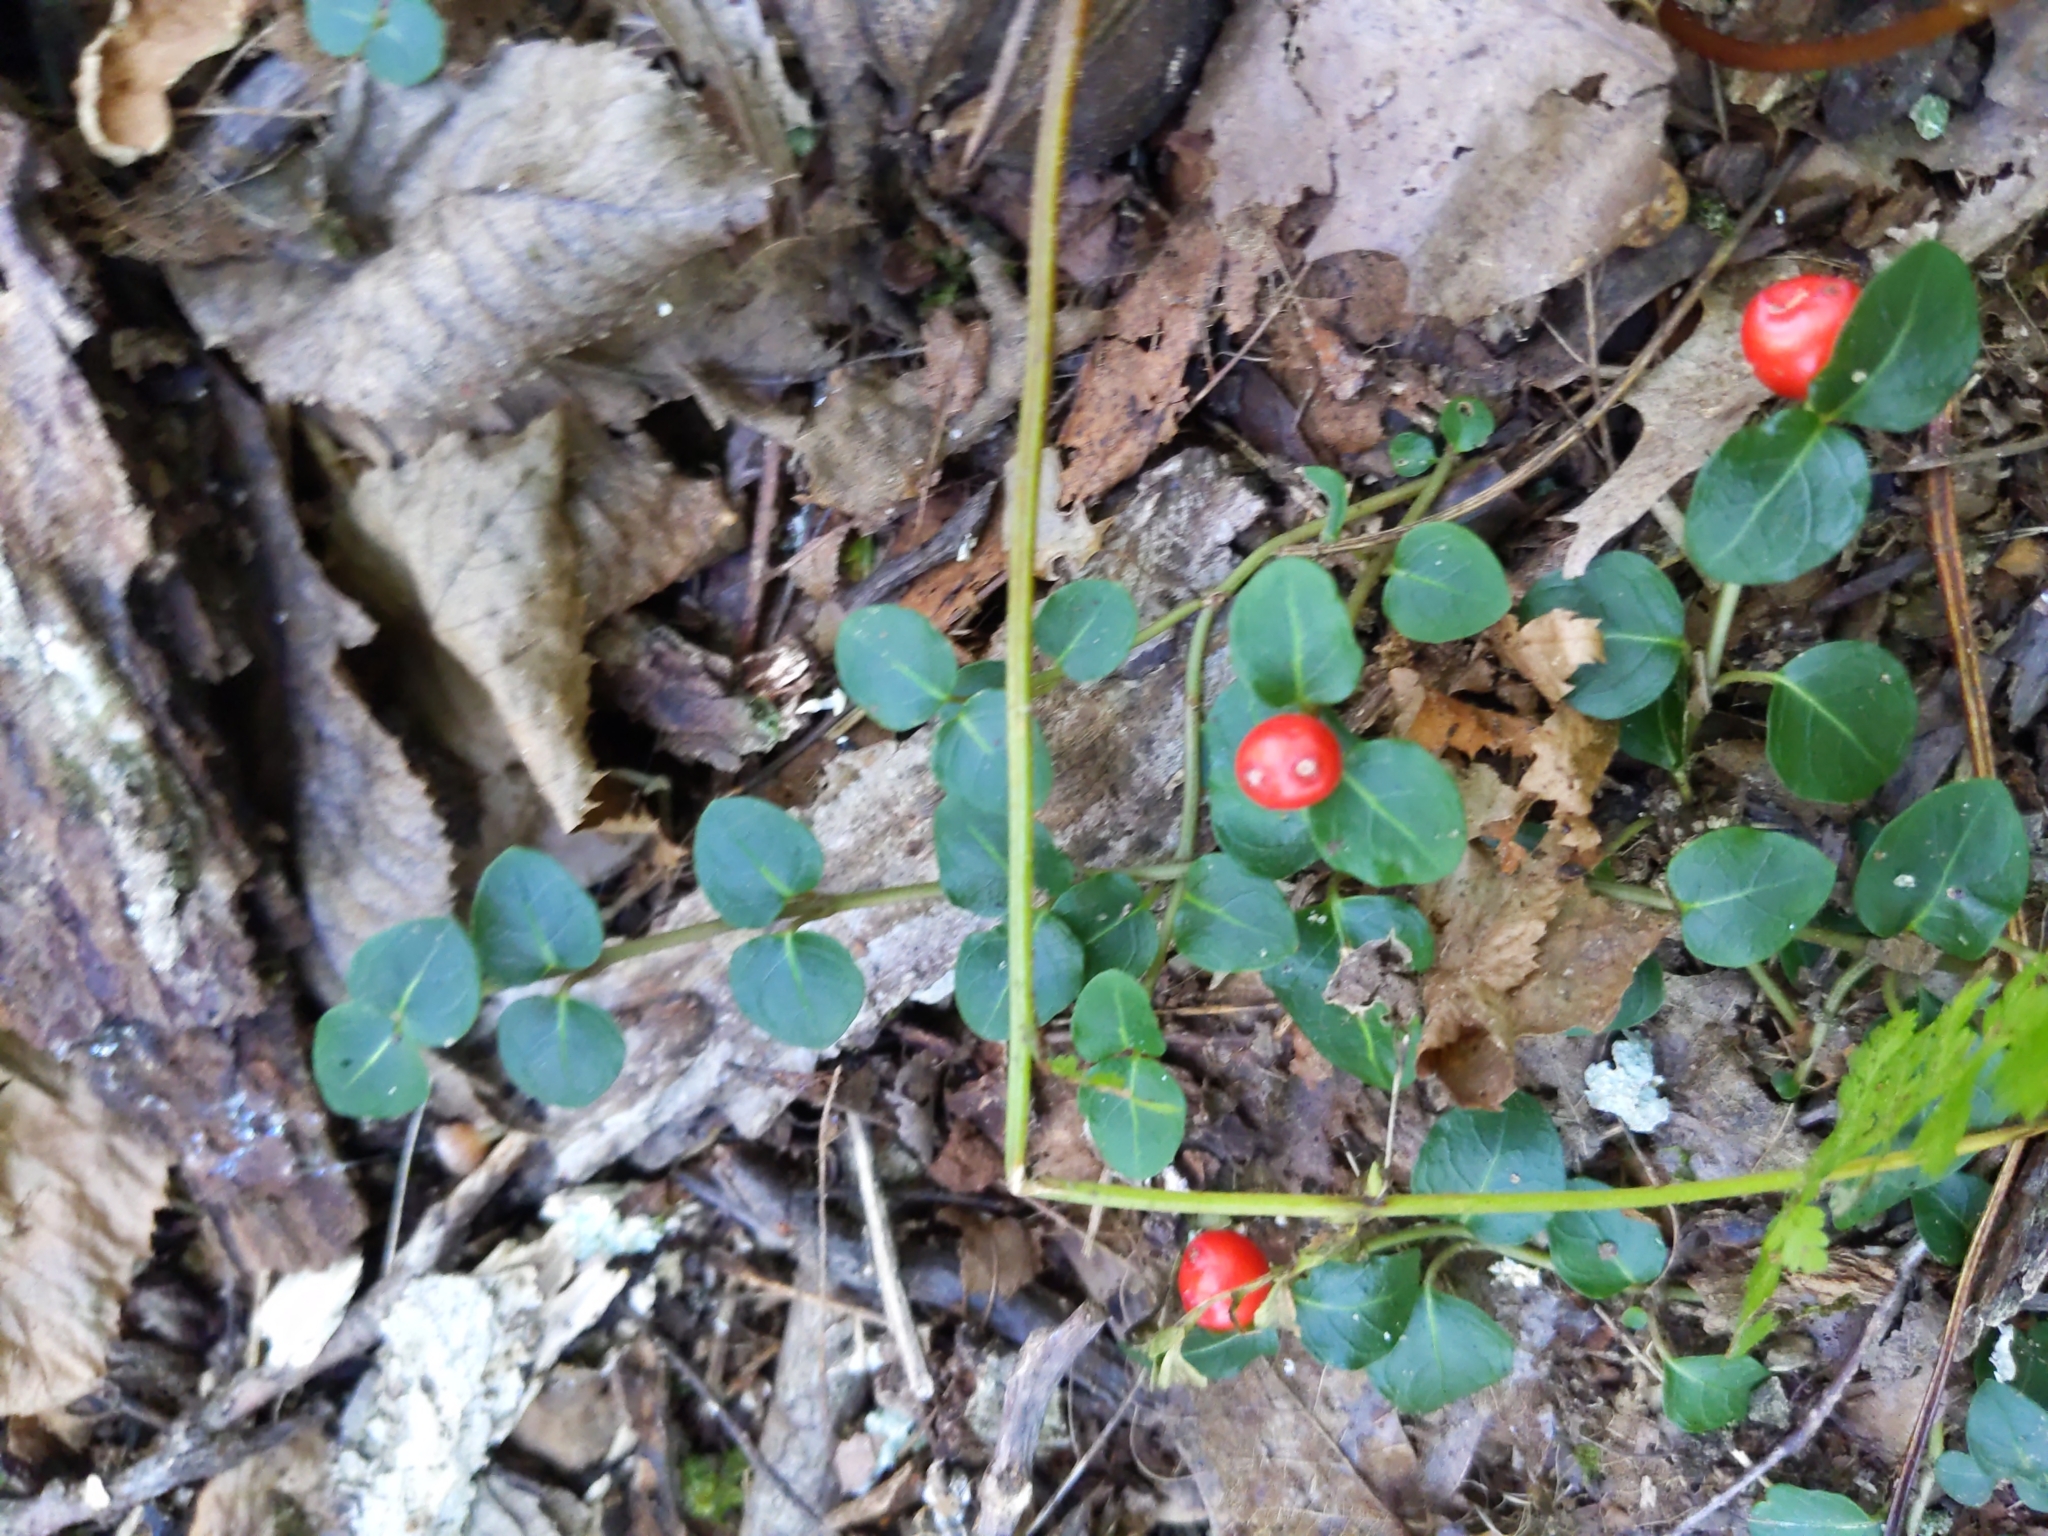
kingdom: Plantae
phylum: Tracheophyta
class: Magnoliopsida
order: Gentianales
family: Rubiaceae
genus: Mitchella
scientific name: Mitchella repens
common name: Partridge-berry
